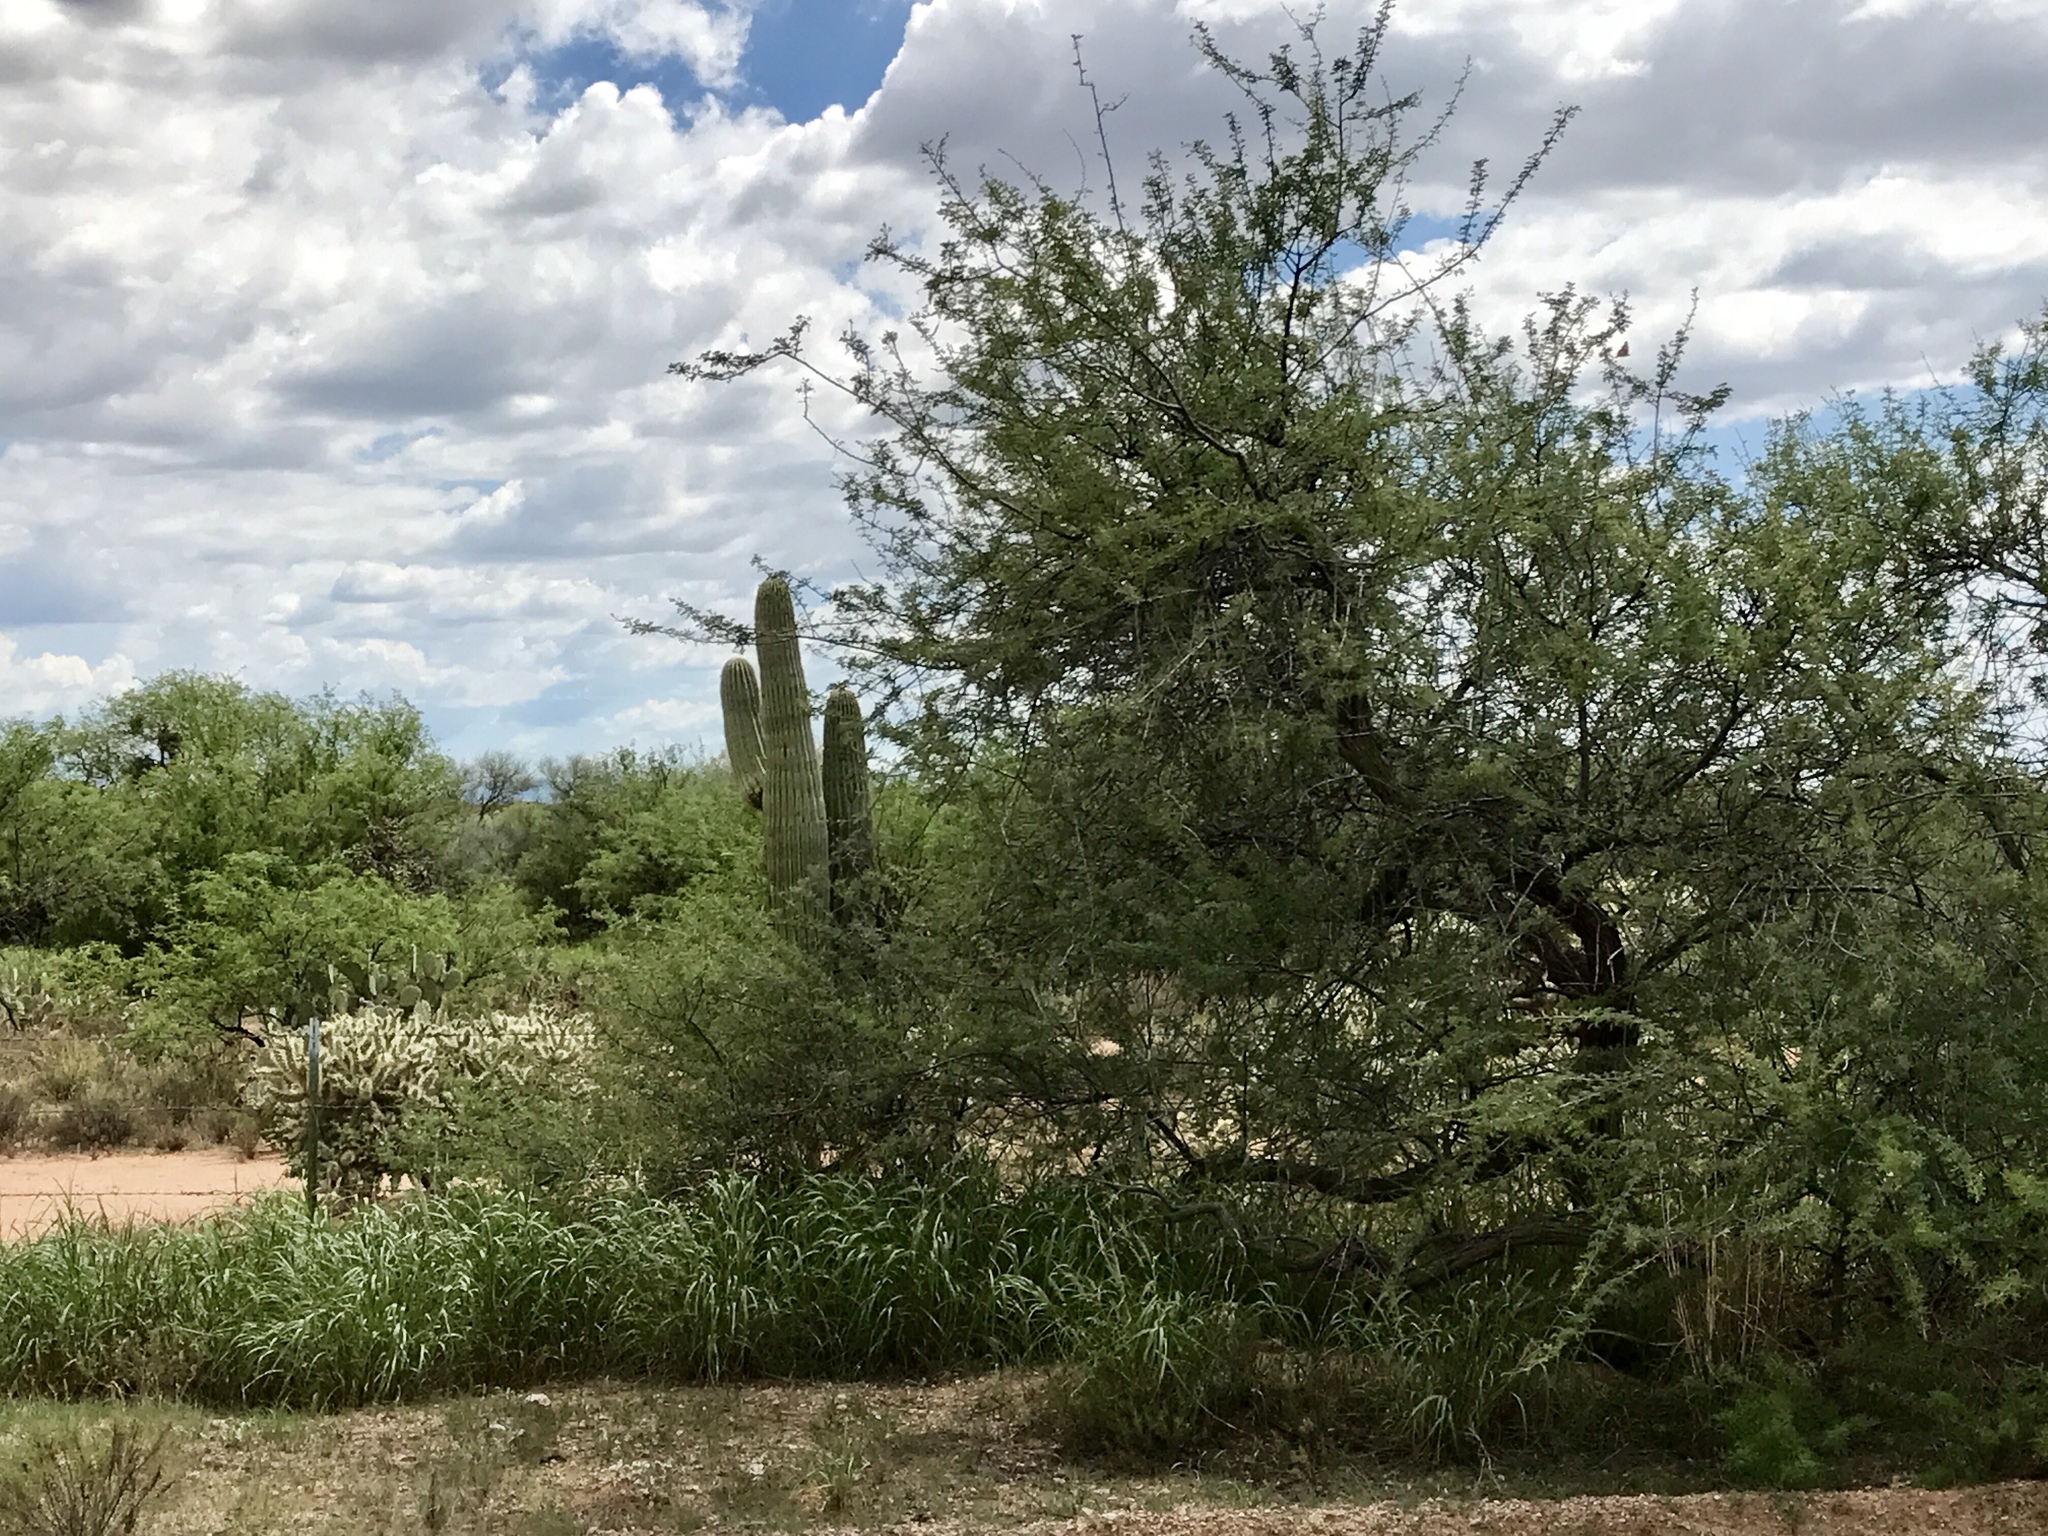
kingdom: Plantae
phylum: Tracheophyta
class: Magnoliopsida
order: Fabales
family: Fabaceae
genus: Prosopis
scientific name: Prosopis velutina
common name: Velvet mesquite
